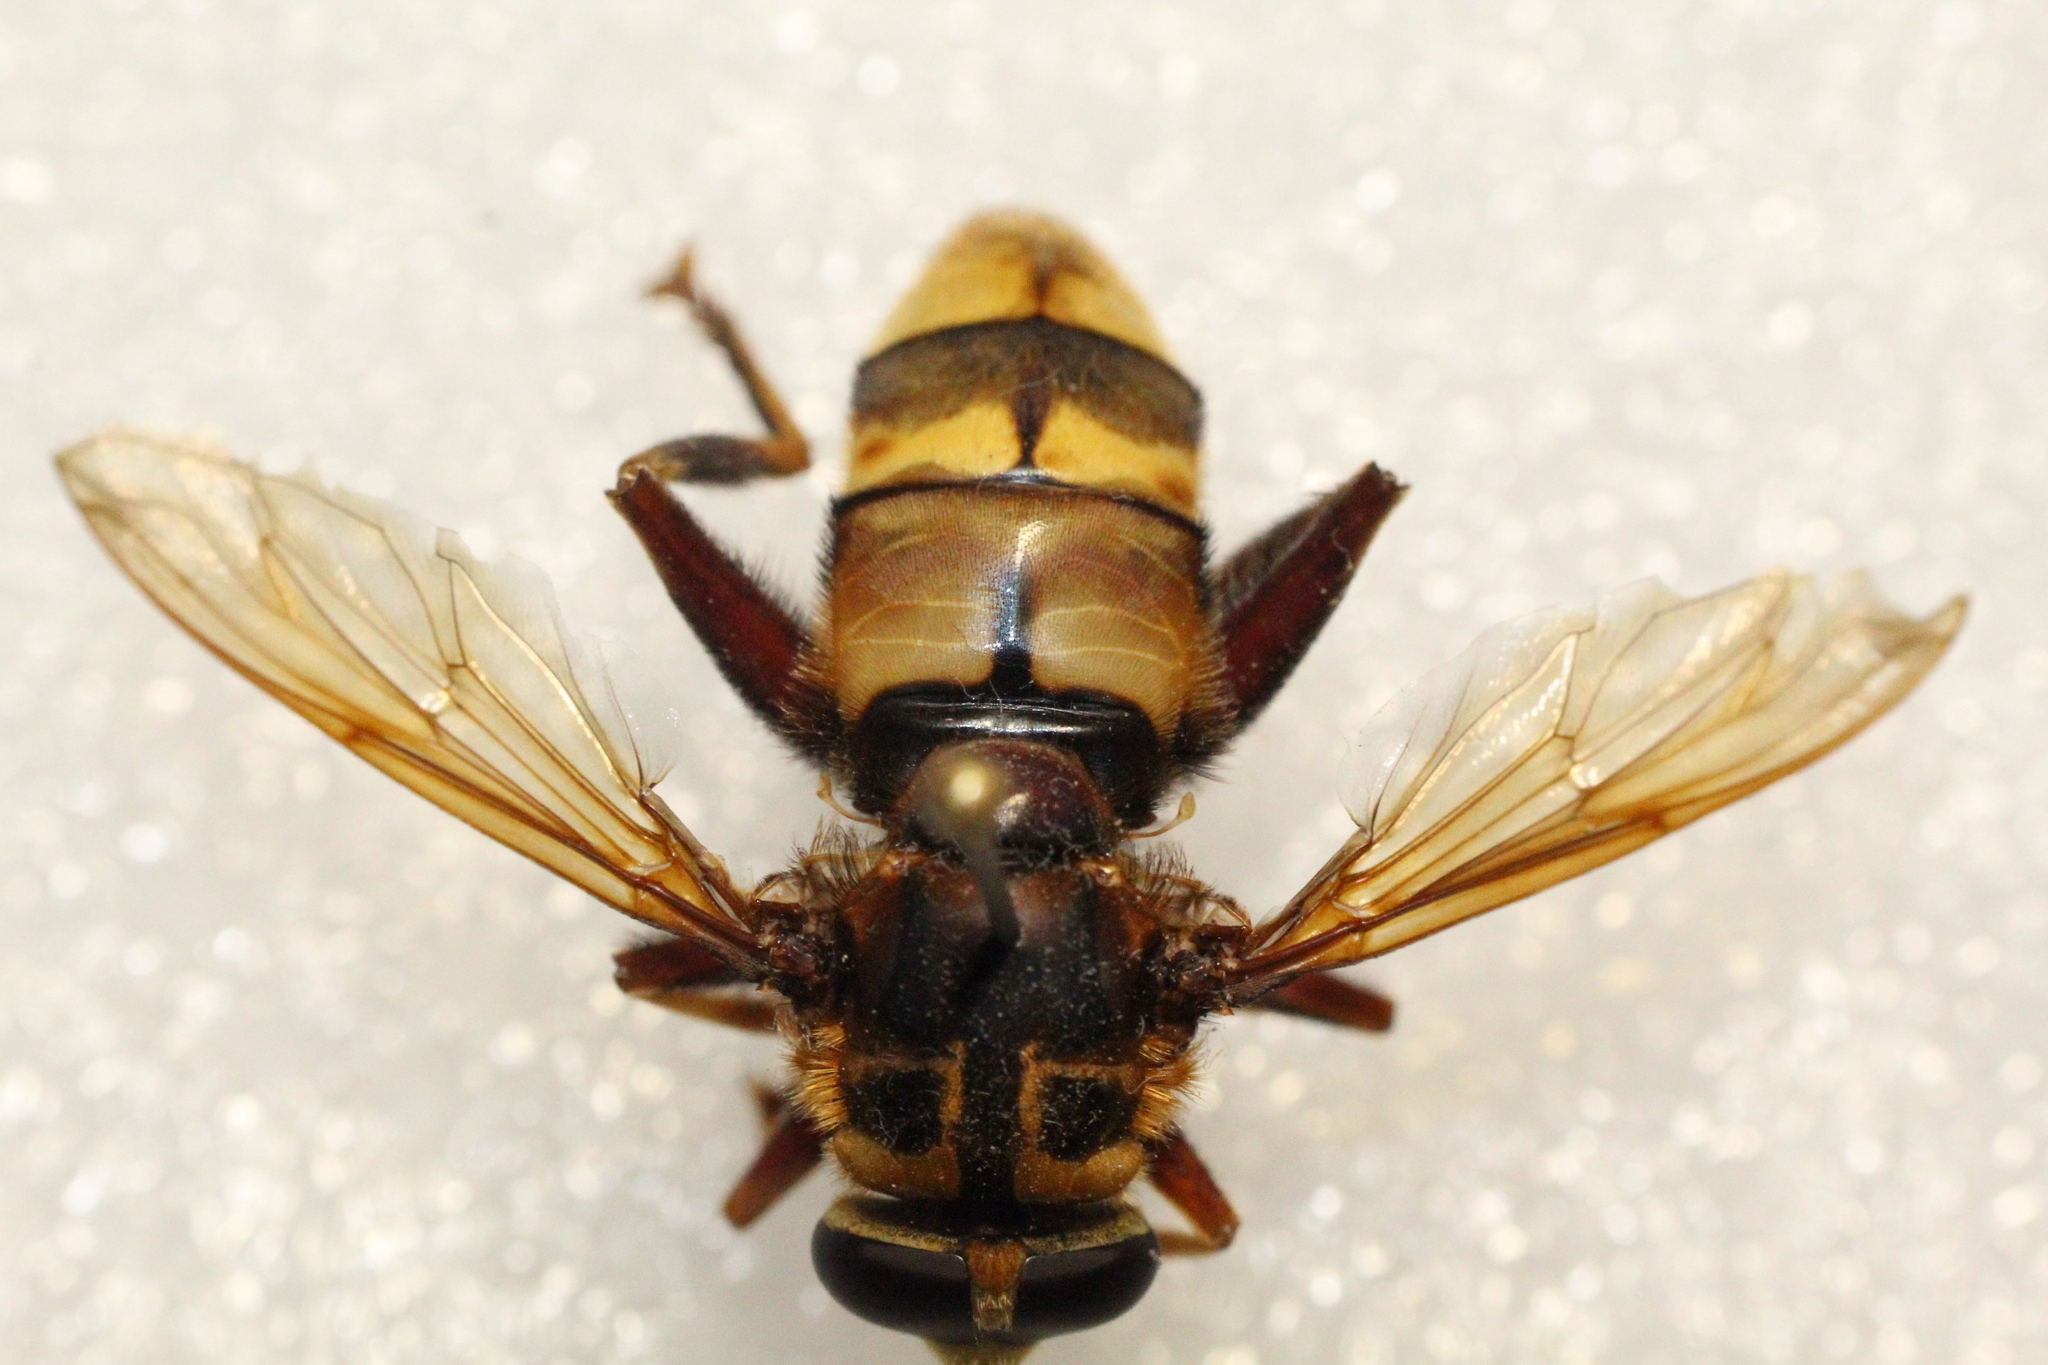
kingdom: Animalia
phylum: Arthropoda
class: Insecta
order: Diptera
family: Syrphidae
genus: Milesia
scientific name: Milesia crabroniformis
